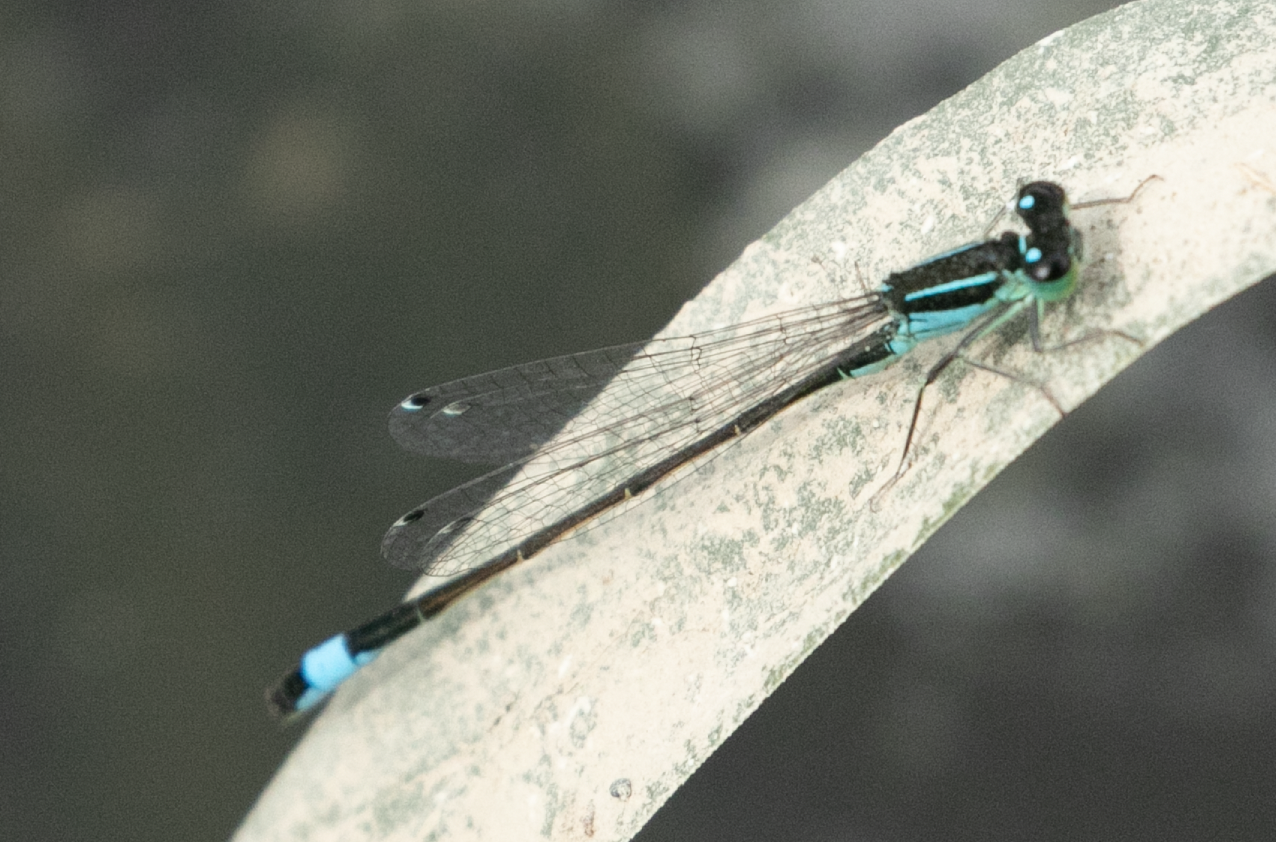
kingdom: Animalia
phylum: Arthropoda
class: Insecta
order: Odonata
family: Coenagrionidae
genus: Ischnura
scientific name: Ischnura elegans
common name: Blue-tailed damselfly
